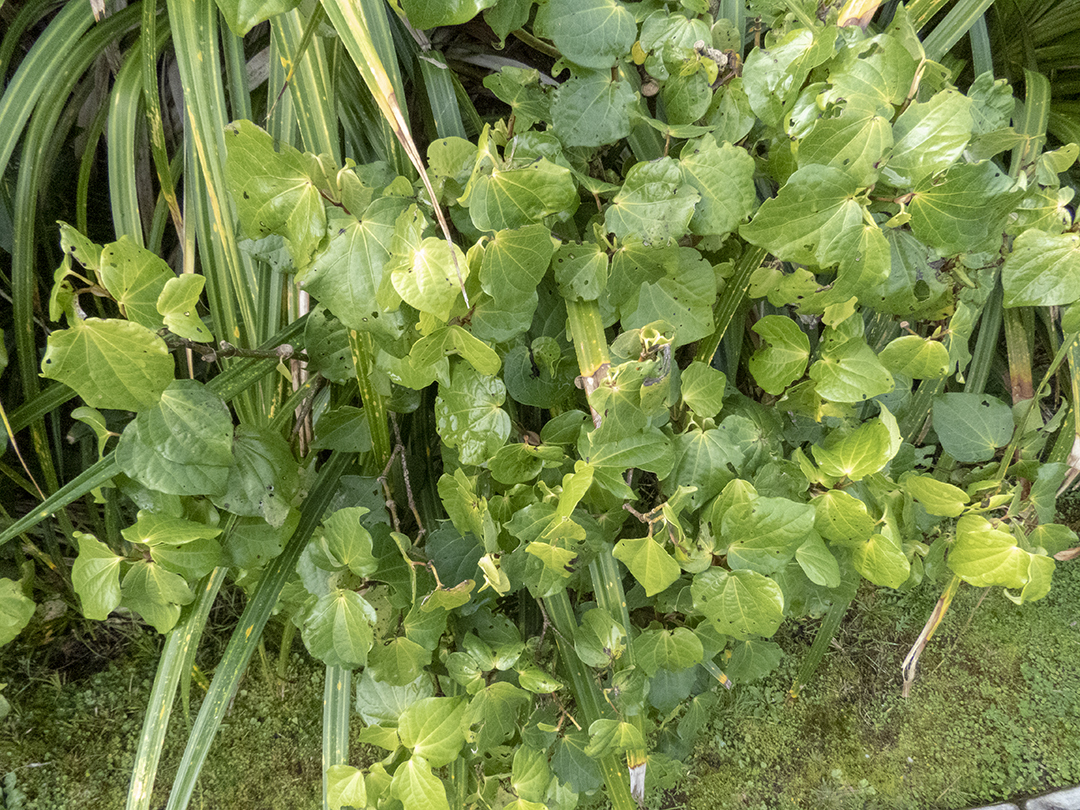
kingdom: Plantae
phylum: Tracheophyta
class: Magnoliopsida
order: Piperales
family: Piperaceae
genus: Macropiper
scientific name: Macropiper excelsum
